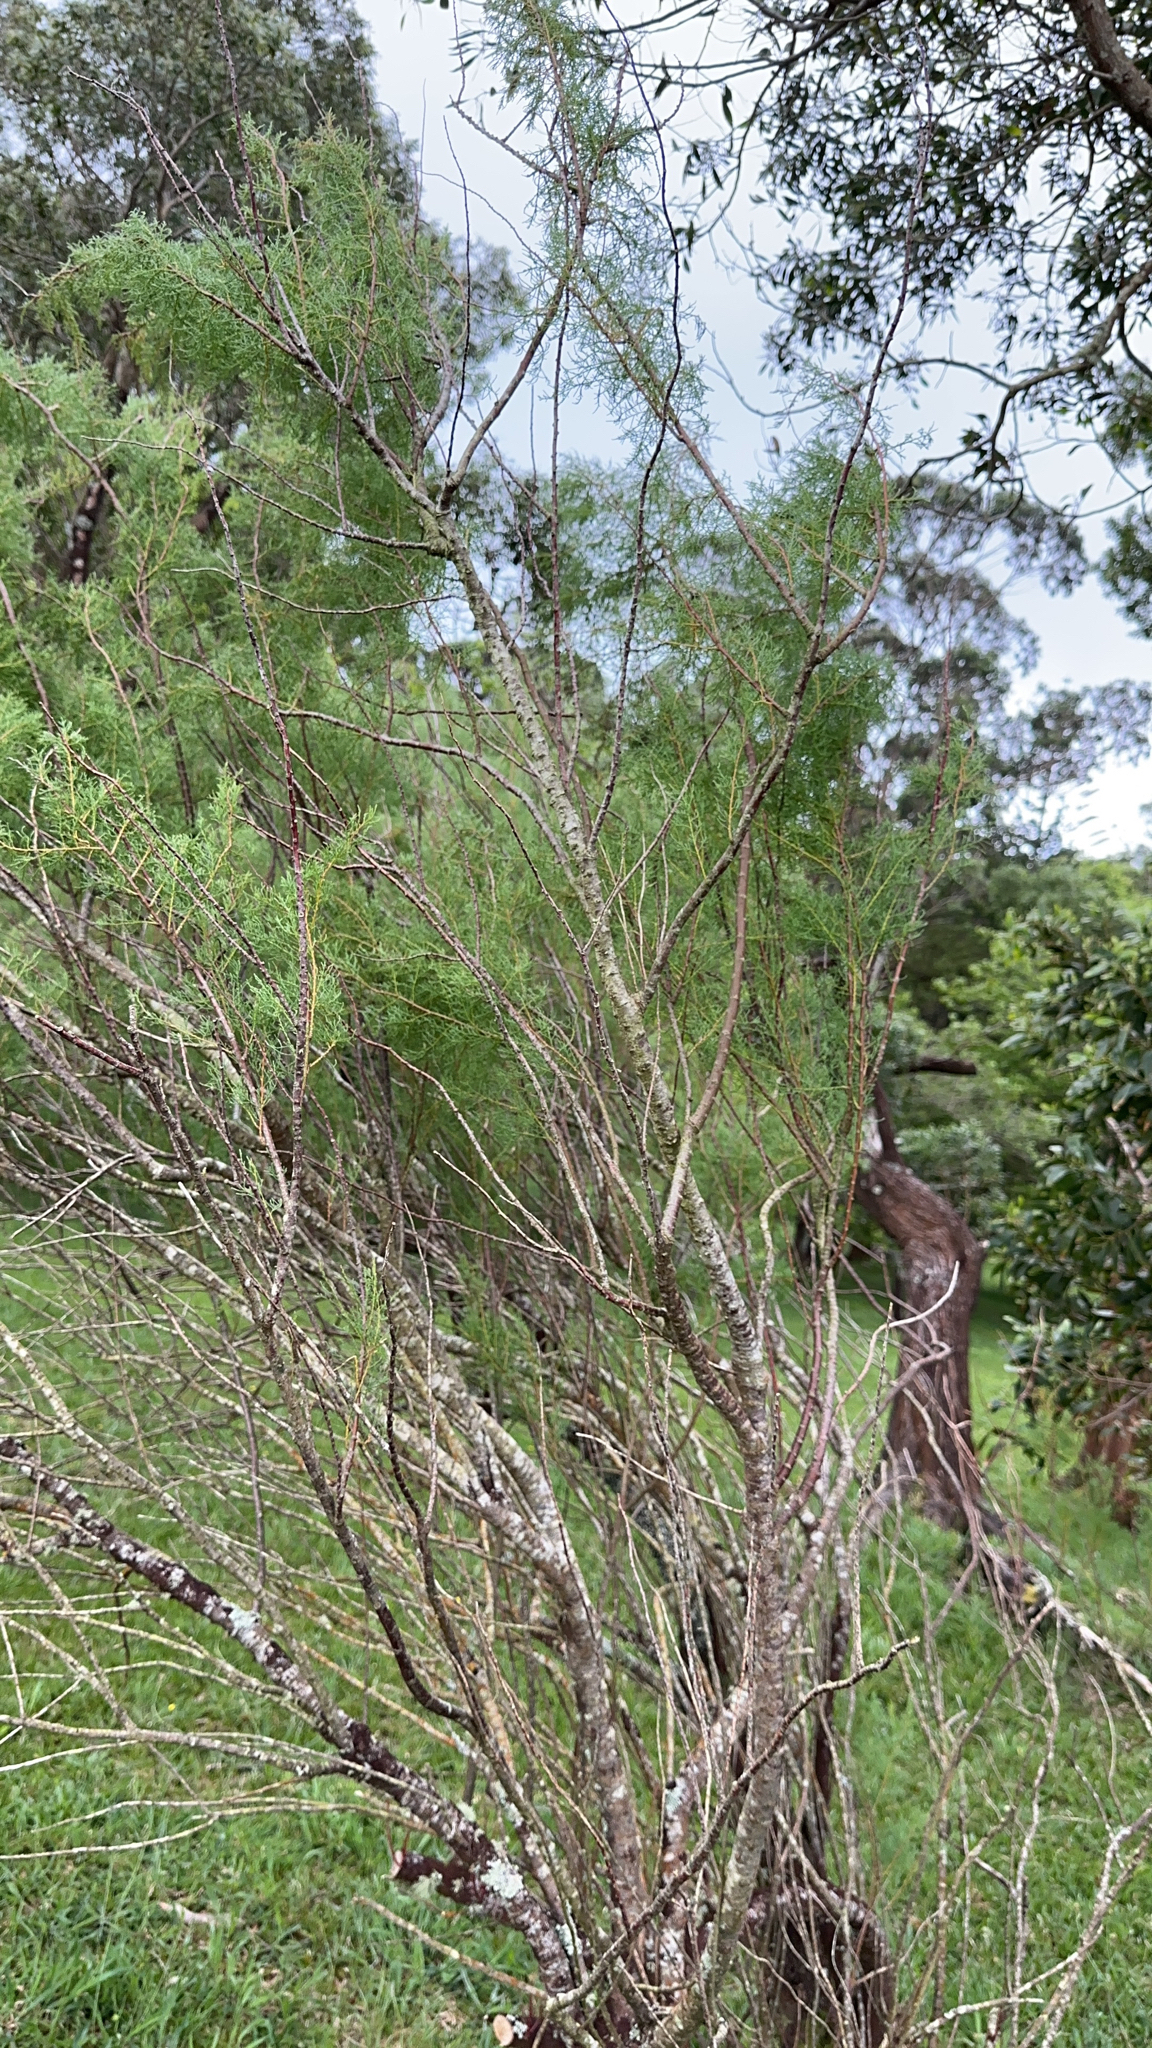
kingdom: Plantae
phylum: Tracheophyta
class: Magnoliopsida
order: Caryophyllales
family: Tamaricaceae
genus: Tamarix
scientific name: Tamarix africana
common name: African tamarisk
